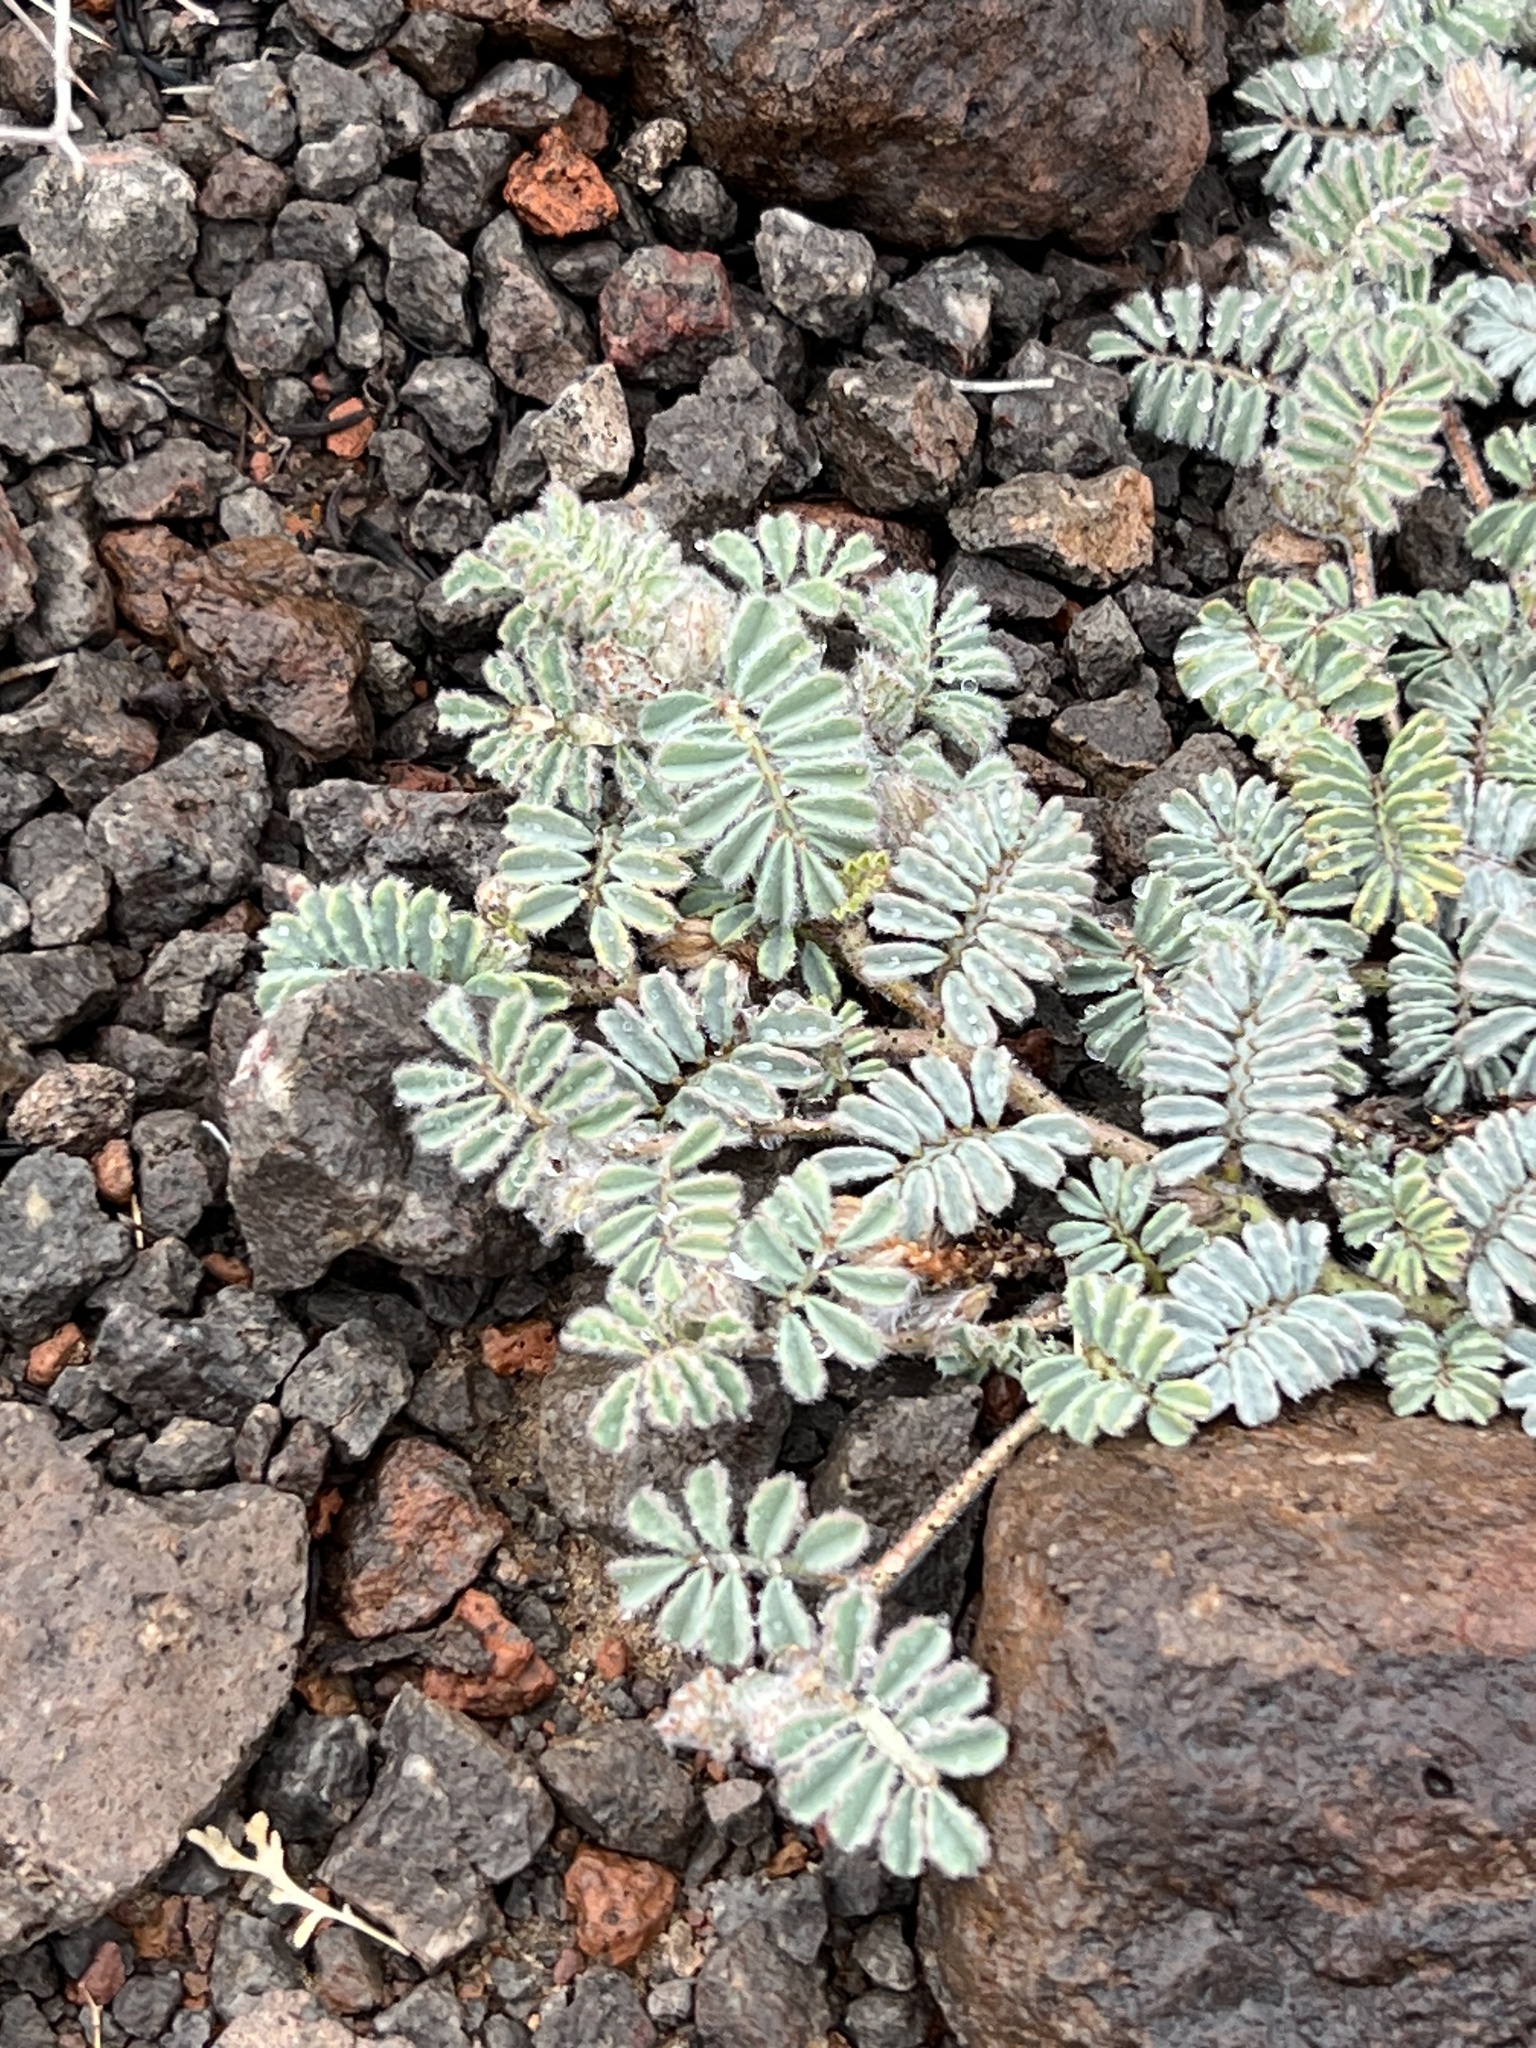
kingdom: Plantae
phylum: Tracheophyta
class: Magnoliopsida
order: Fabales
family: Fabaceae
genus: Dalea
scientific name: Dalea mollissima
